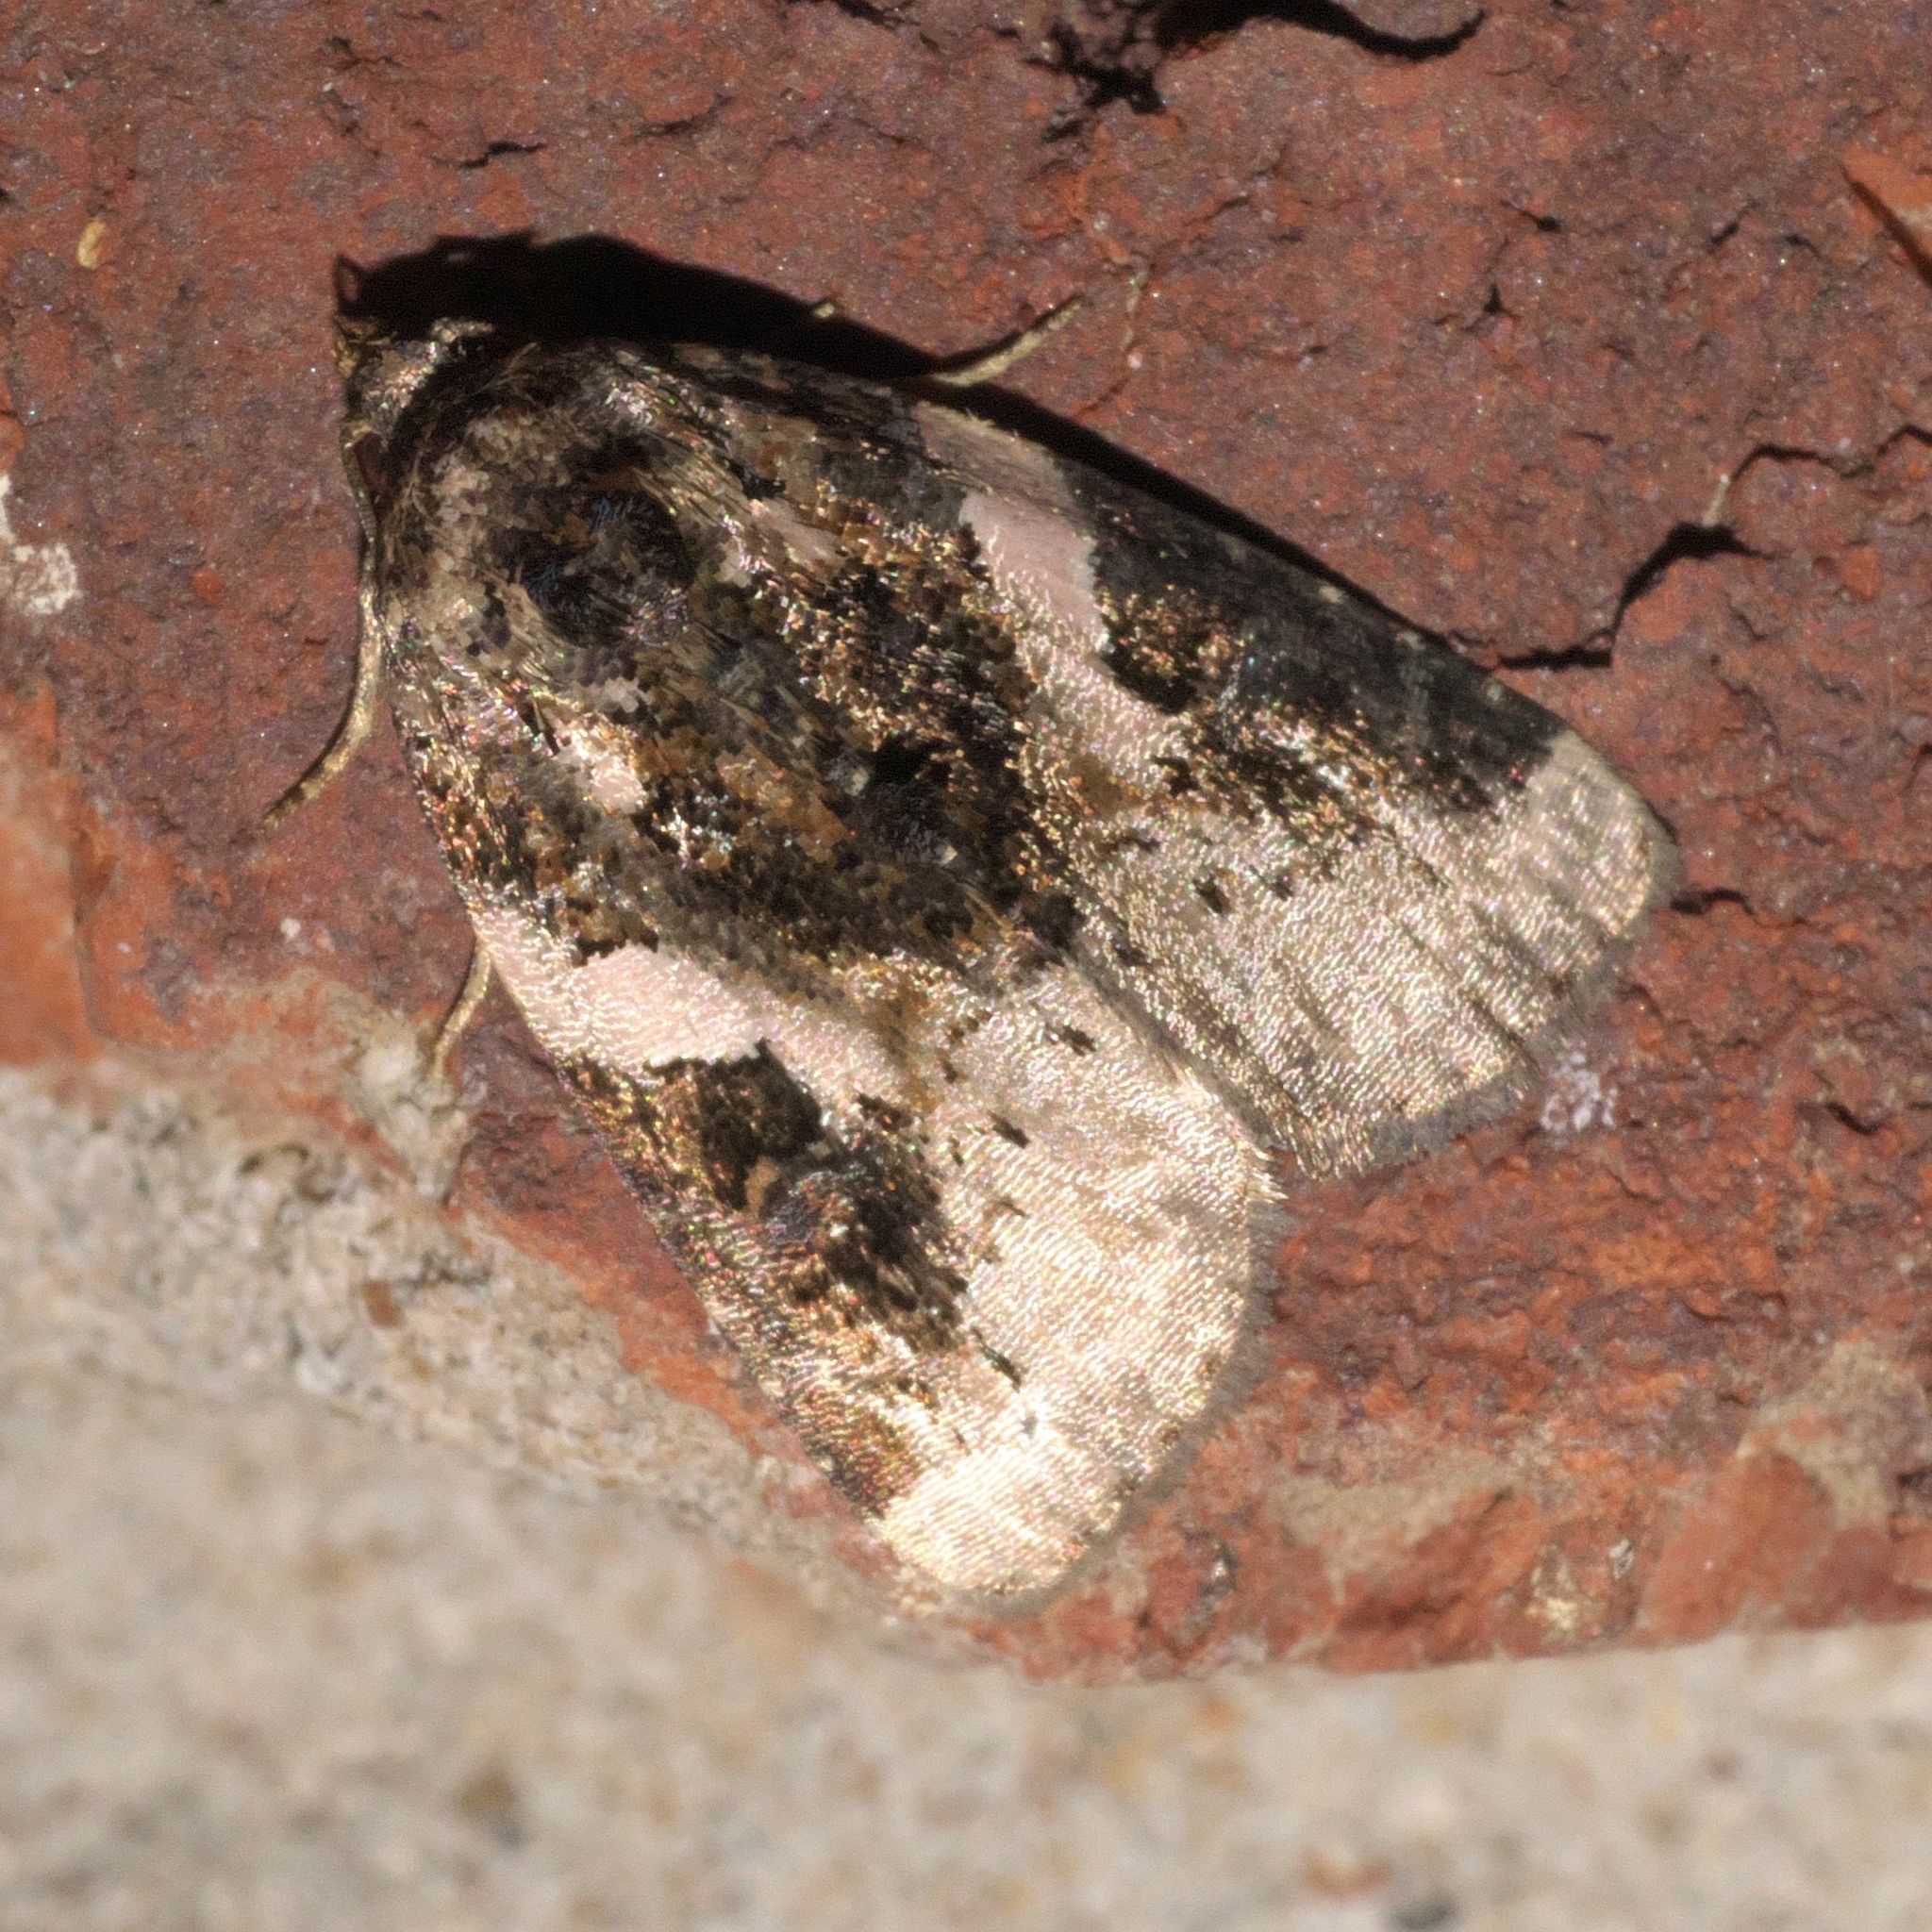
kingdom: Animalia
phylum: Arthropoda
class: Insecta
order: Lepidoptera
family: Noctuidae
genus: Pseudeustrotia
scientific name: Pseudeustrotia carneola
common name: Pink-barred lithacodia moth
